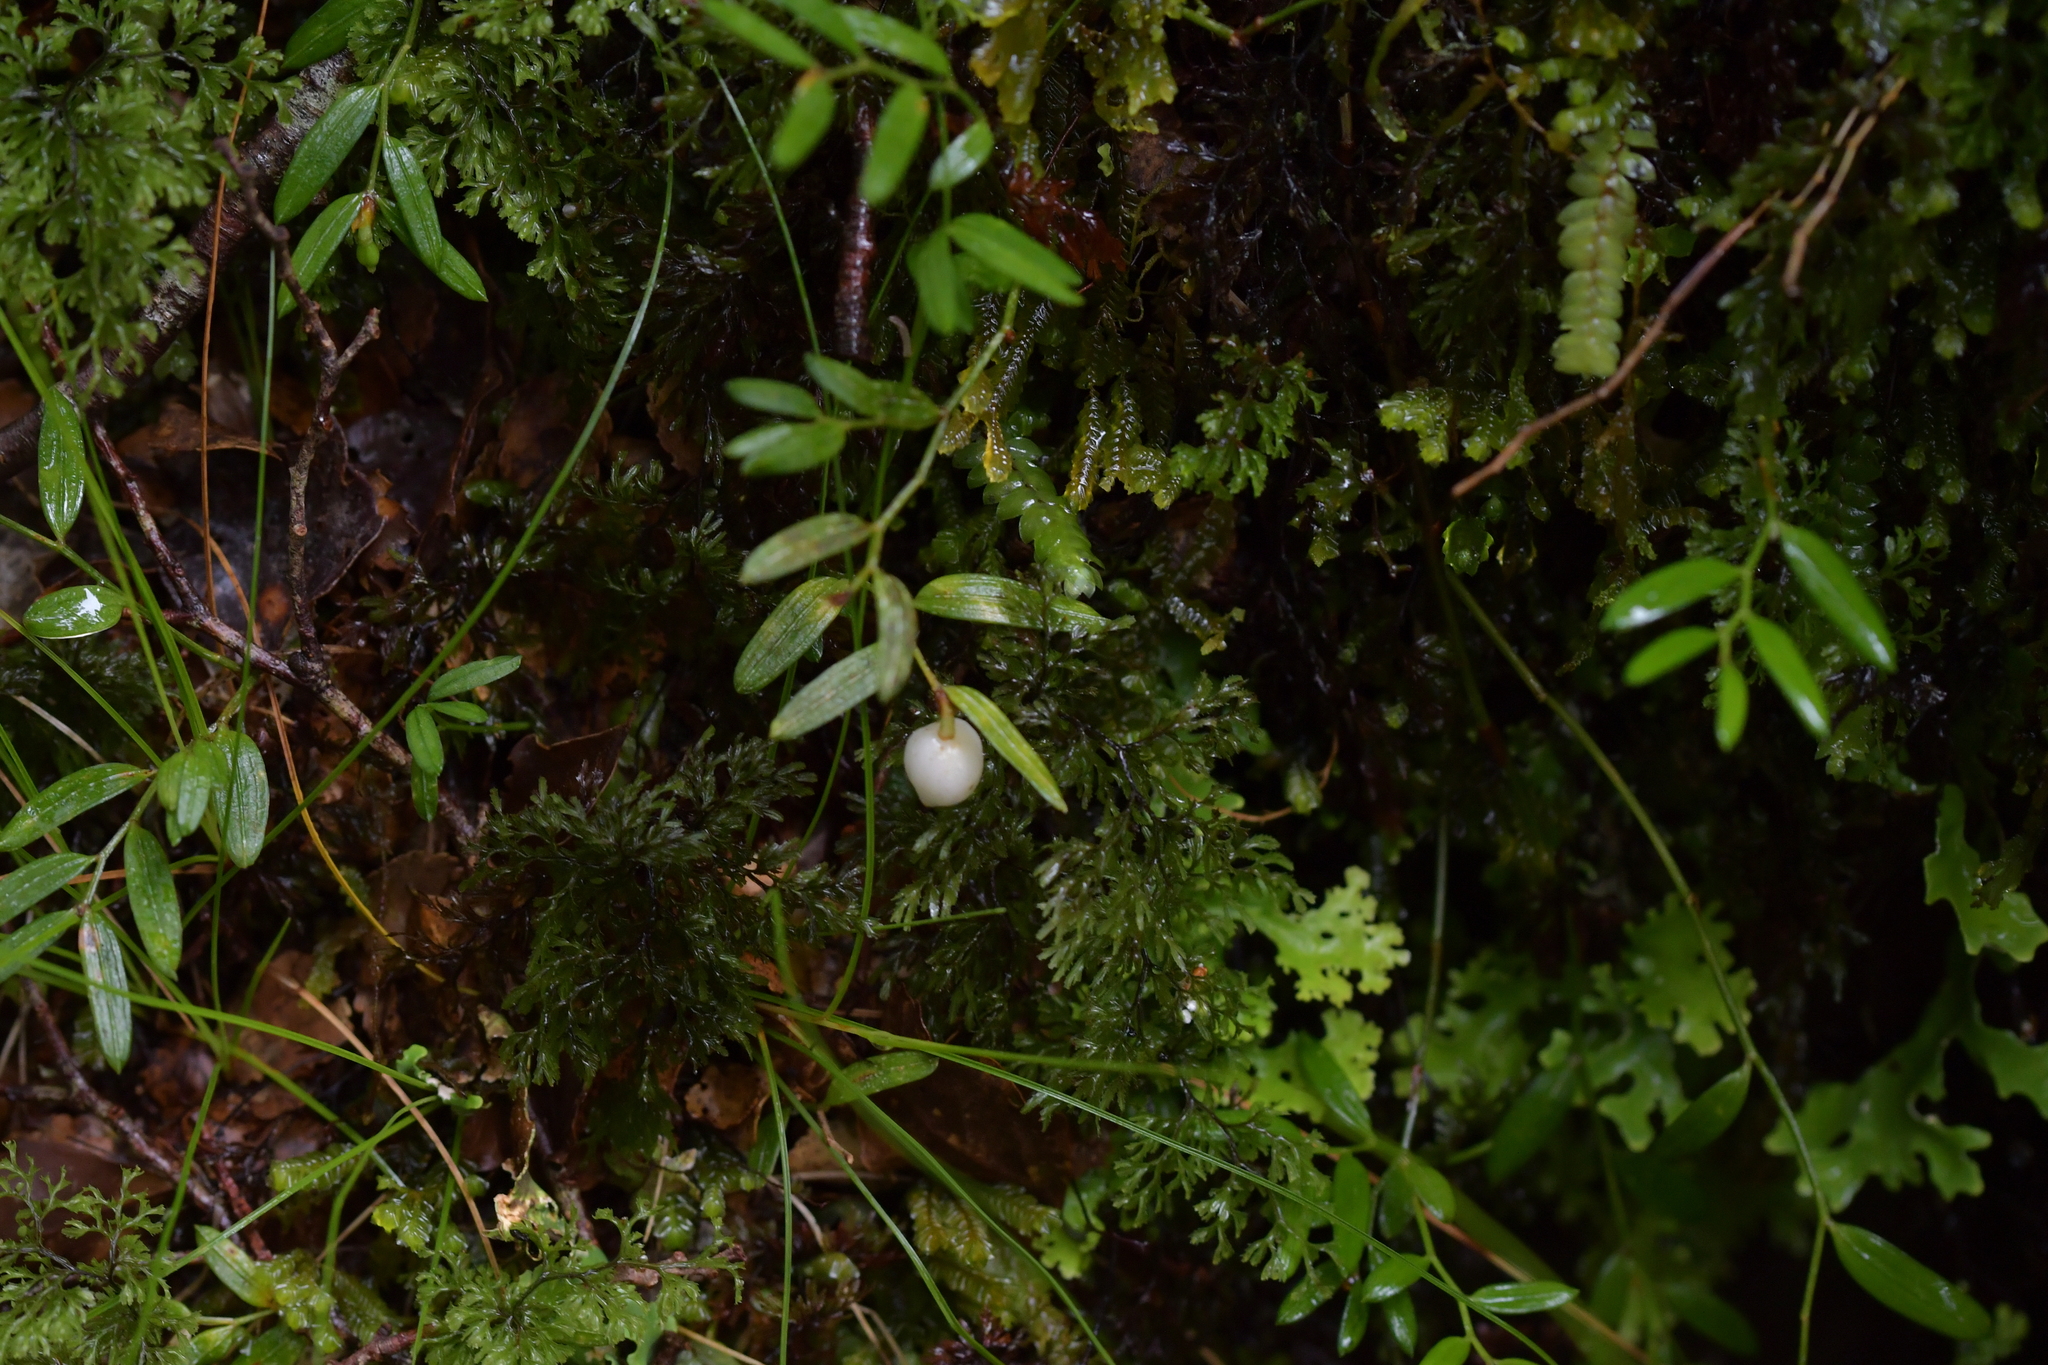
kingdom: Plantae
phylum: Tracheophyta
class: Liliopsida
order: Liliales
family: Alstroemeriaceae
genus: Luzuriaga
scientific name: Luzuriaga parviflora
